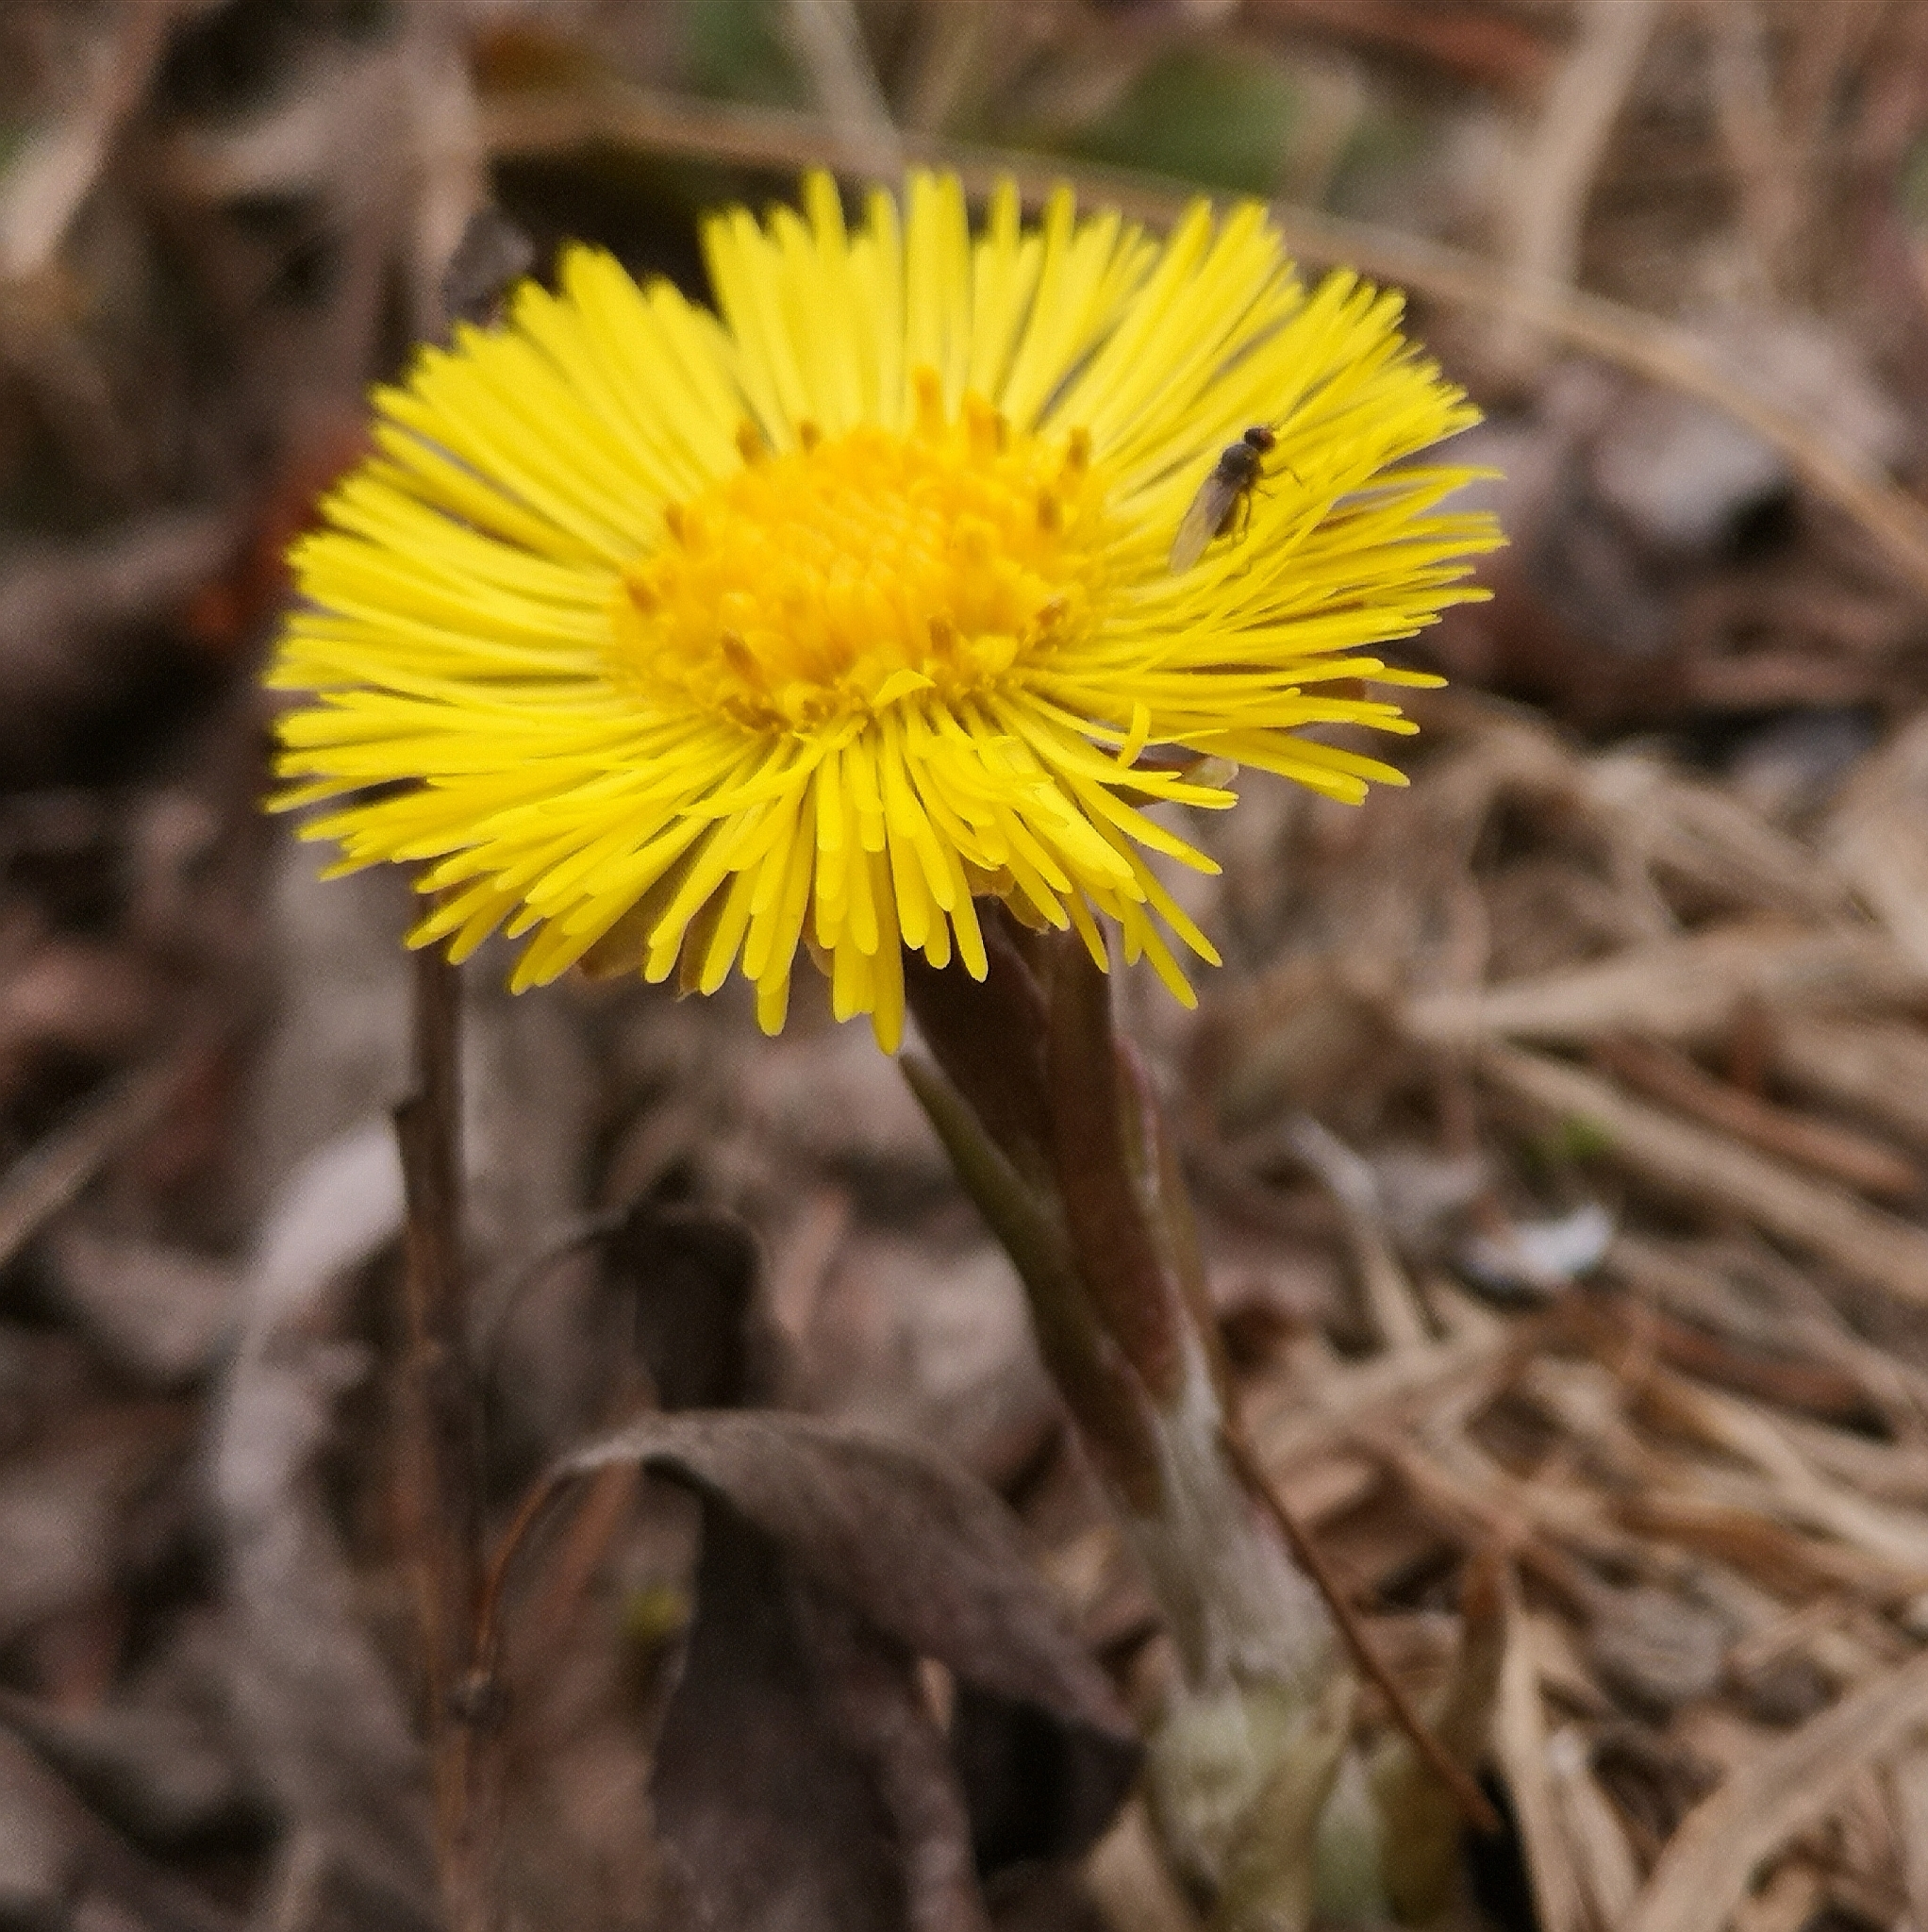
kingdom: Plantae
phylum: Tracheophyta
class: Magnoliopsida
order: Asterales
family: Asteraceae
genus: Tussilago
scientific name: Tussilago farfara
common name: Coltsfoot
